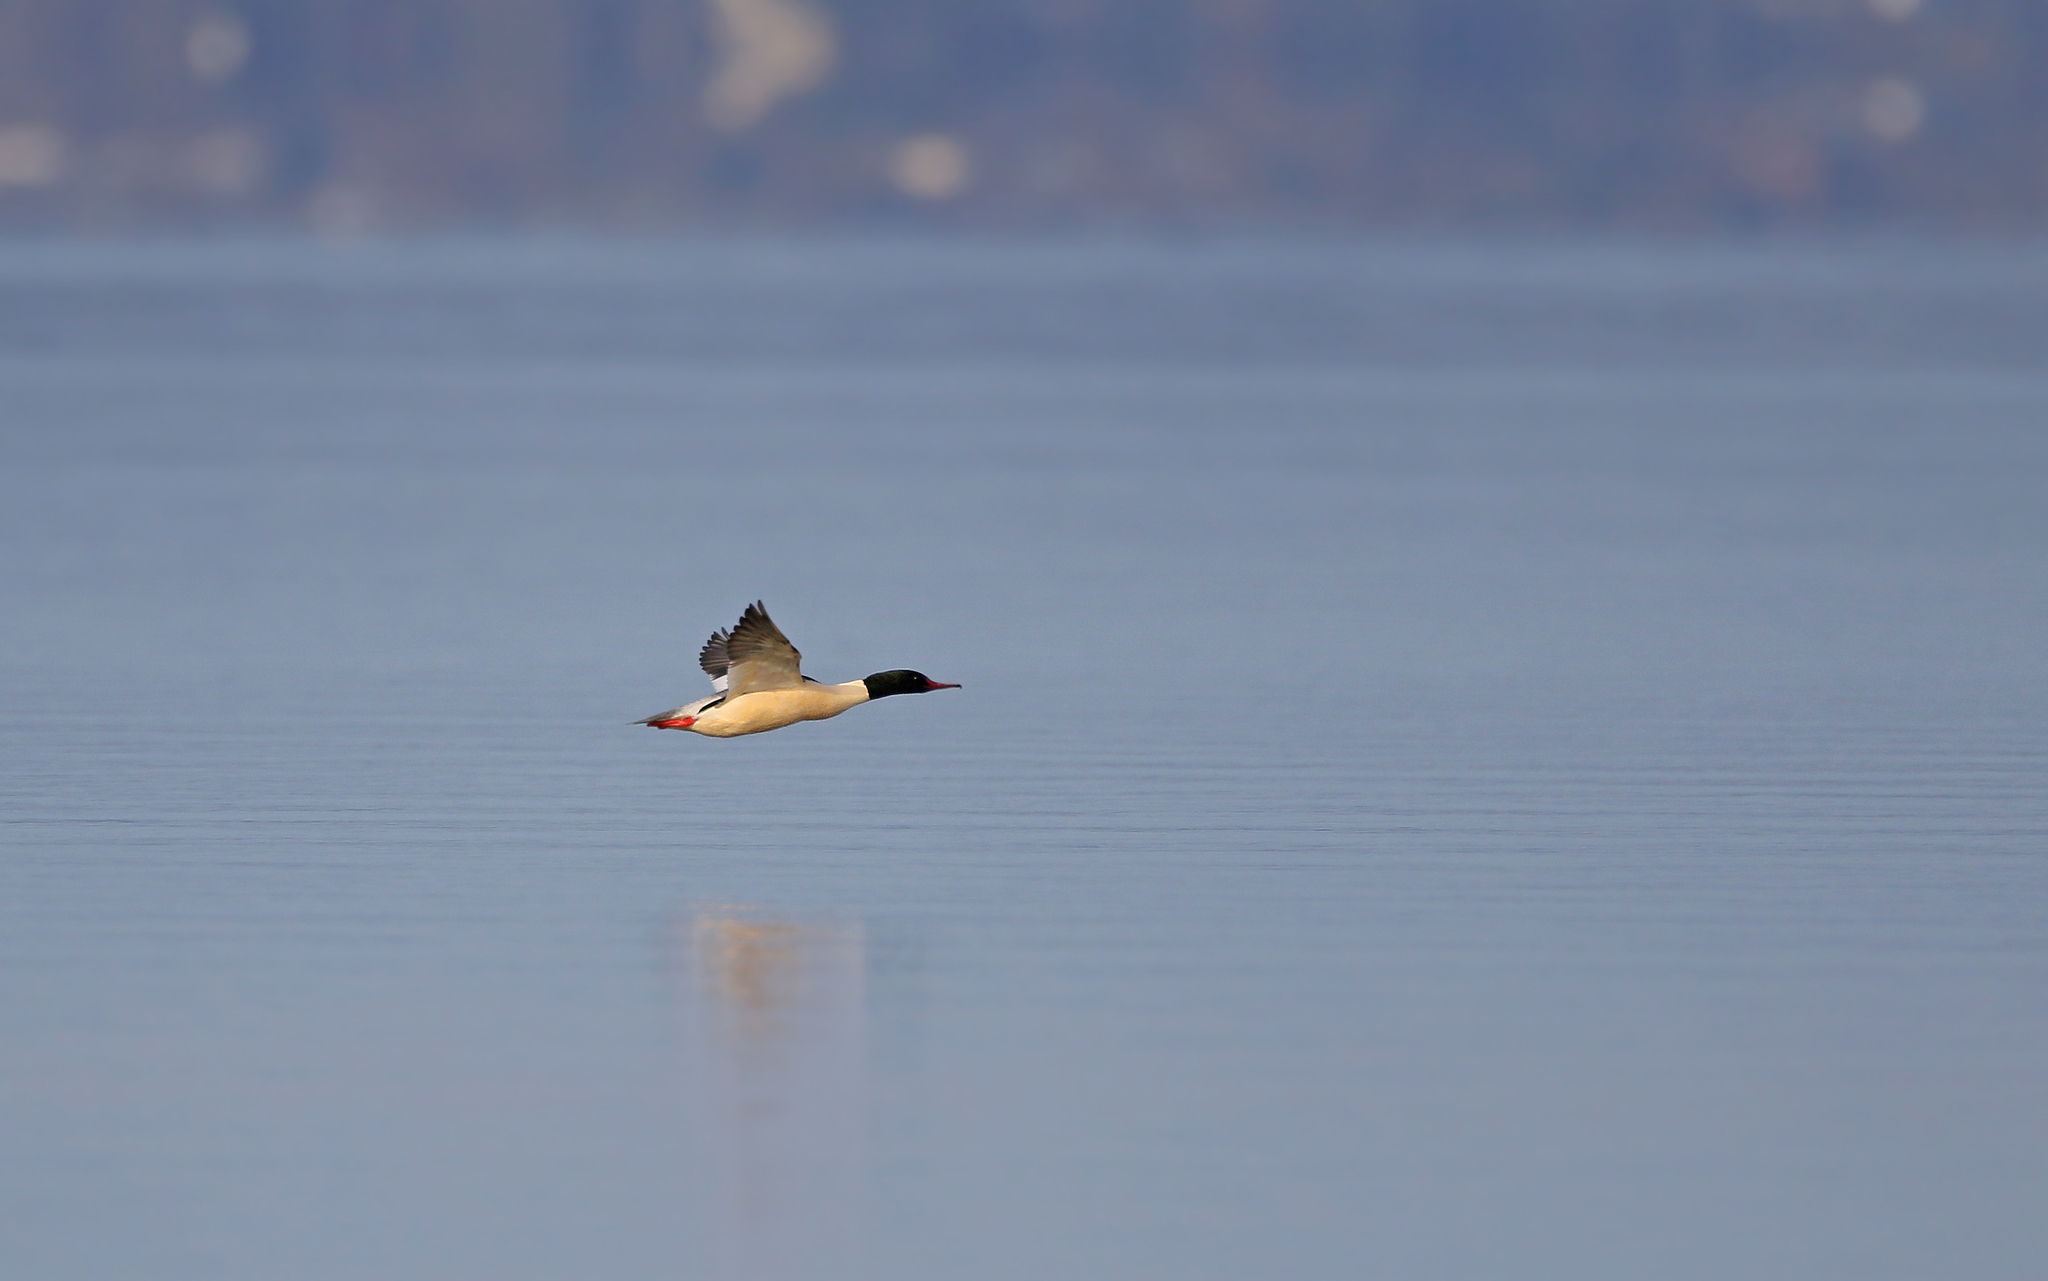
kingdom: Animalia
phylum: Chordata
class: Aves
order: Anseriformes
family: Anatidae
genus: Mergus
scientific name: Mergus merganser
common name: Common merganser
